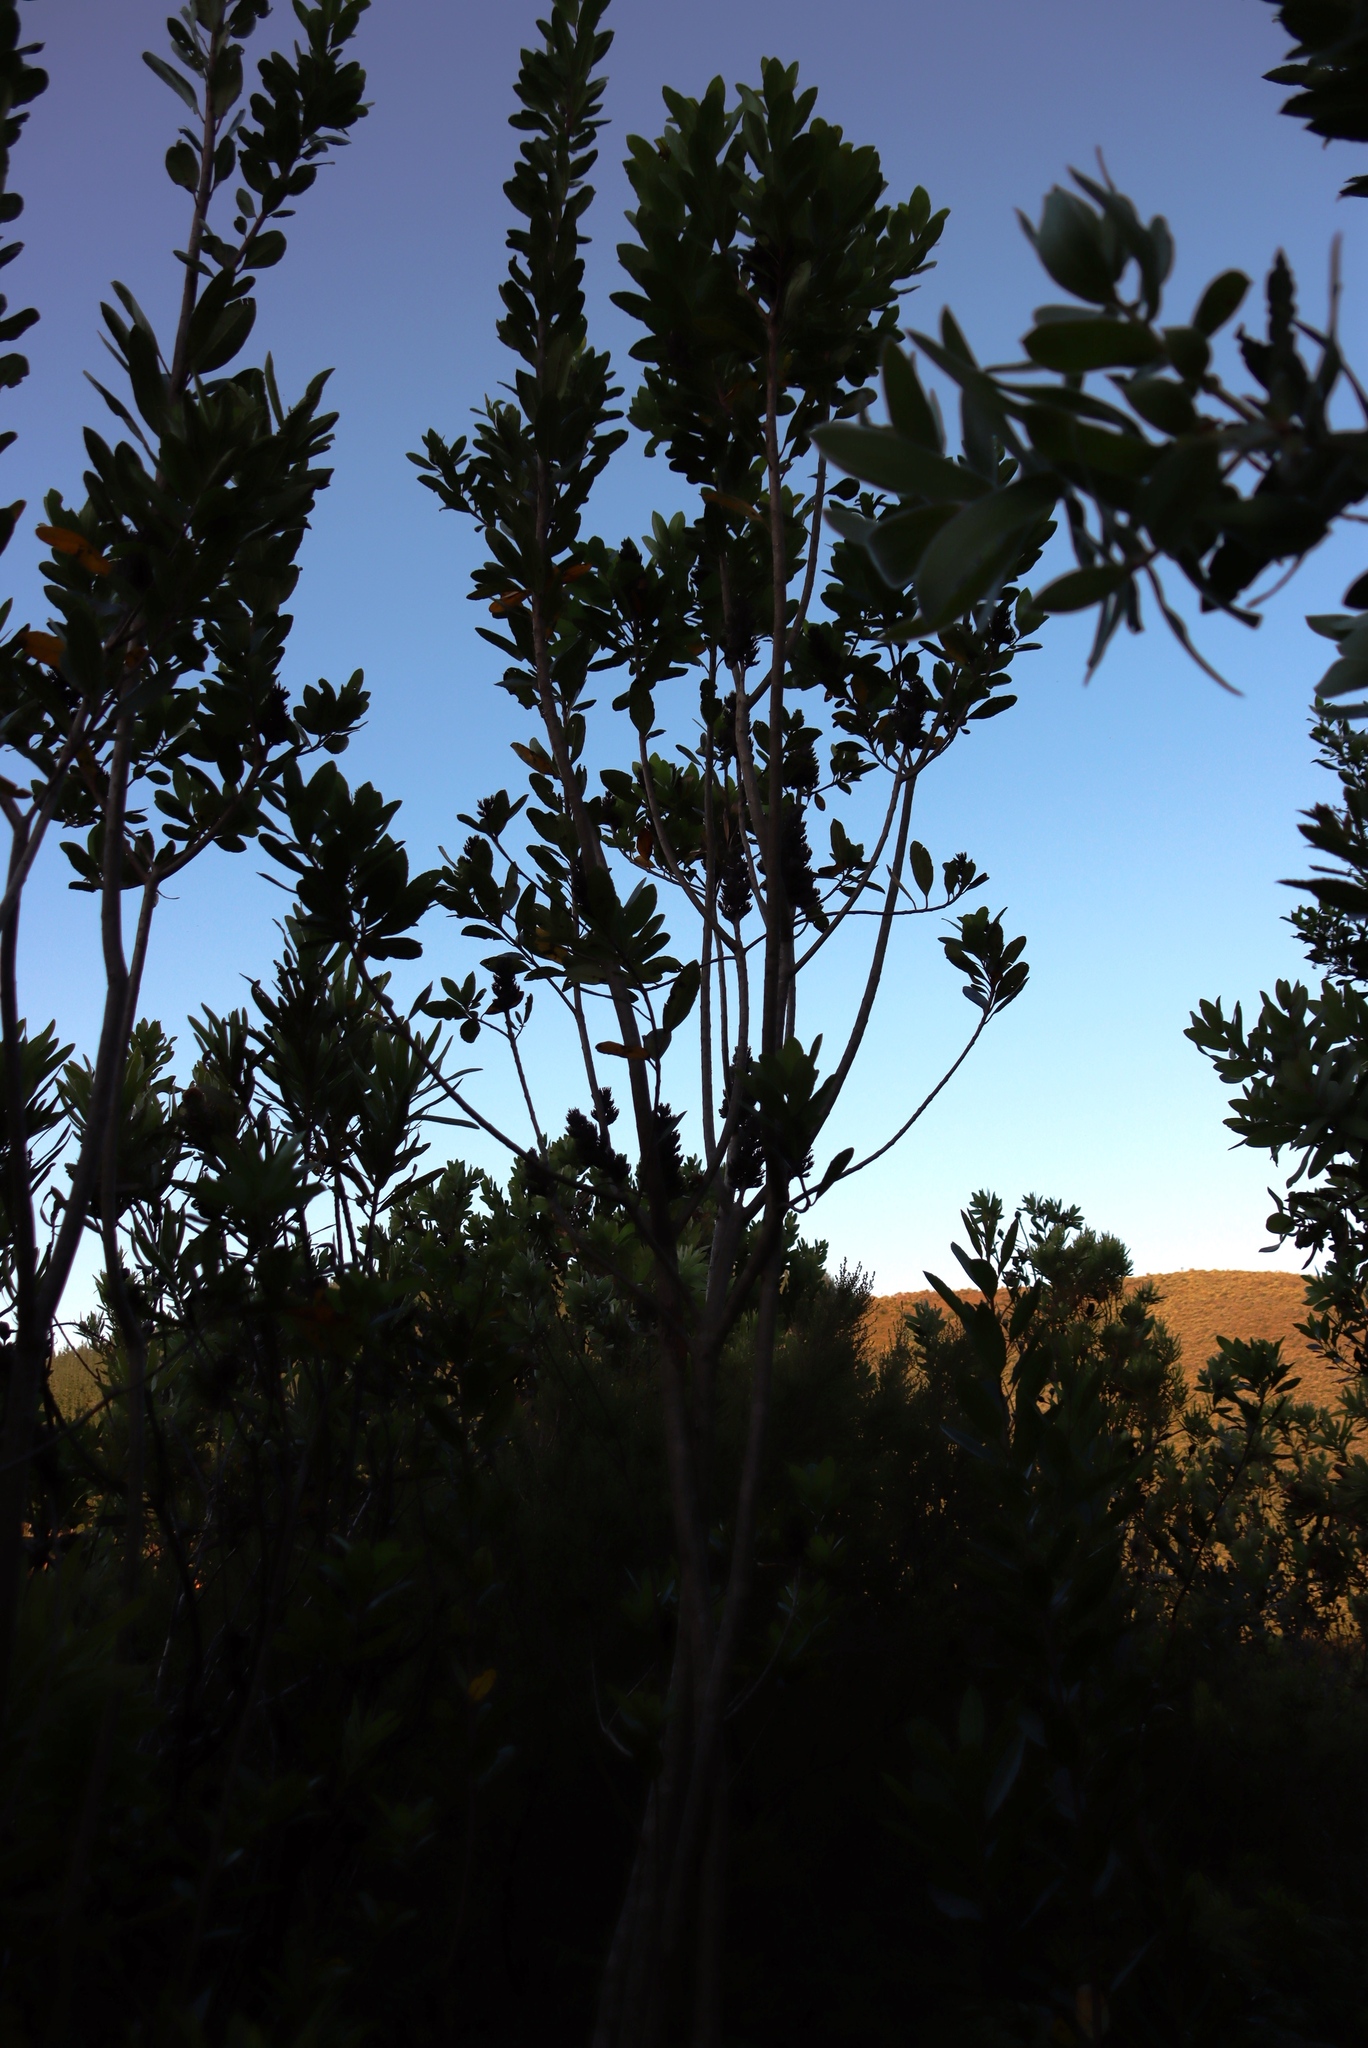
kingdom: Plantae
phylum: Tracheophyta
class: Magnoliopsida
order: Sapindales
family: Anacardiaceae
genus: Laurophyllus
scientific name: Laurophyllus capensis
